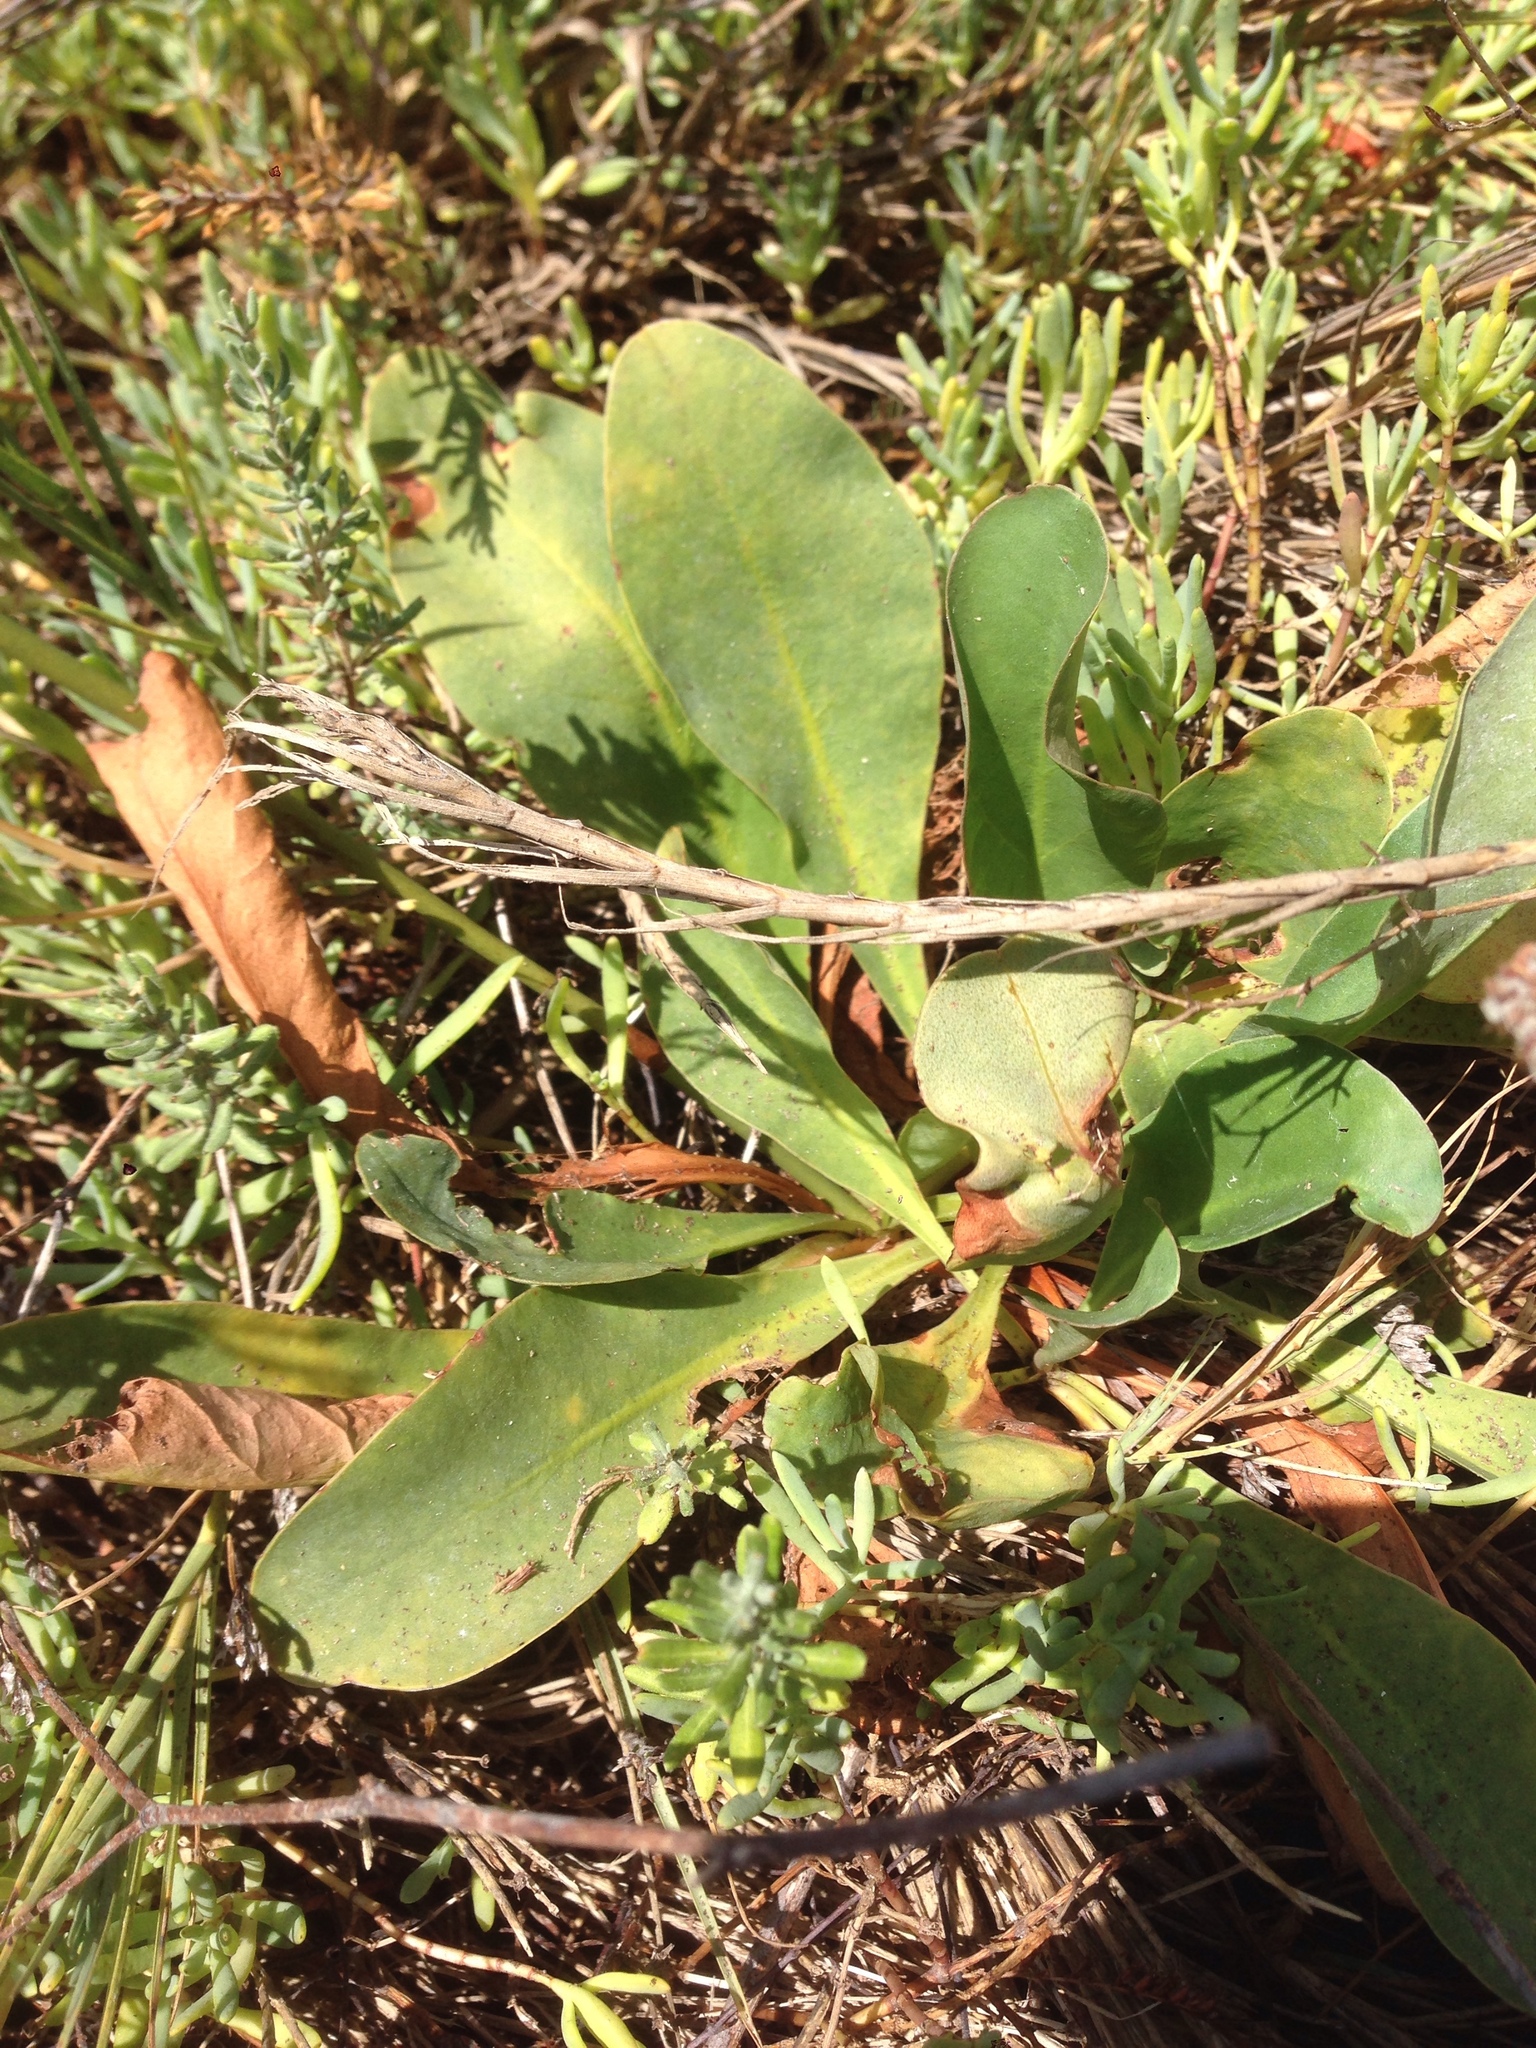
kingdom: Plantae
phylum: Tracheophyta
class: Magnoliopsida
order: Caryophyllales
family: Plumbaginaceae
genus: Limonium
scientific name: Limonium californicum
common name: Marsh-rosemary
